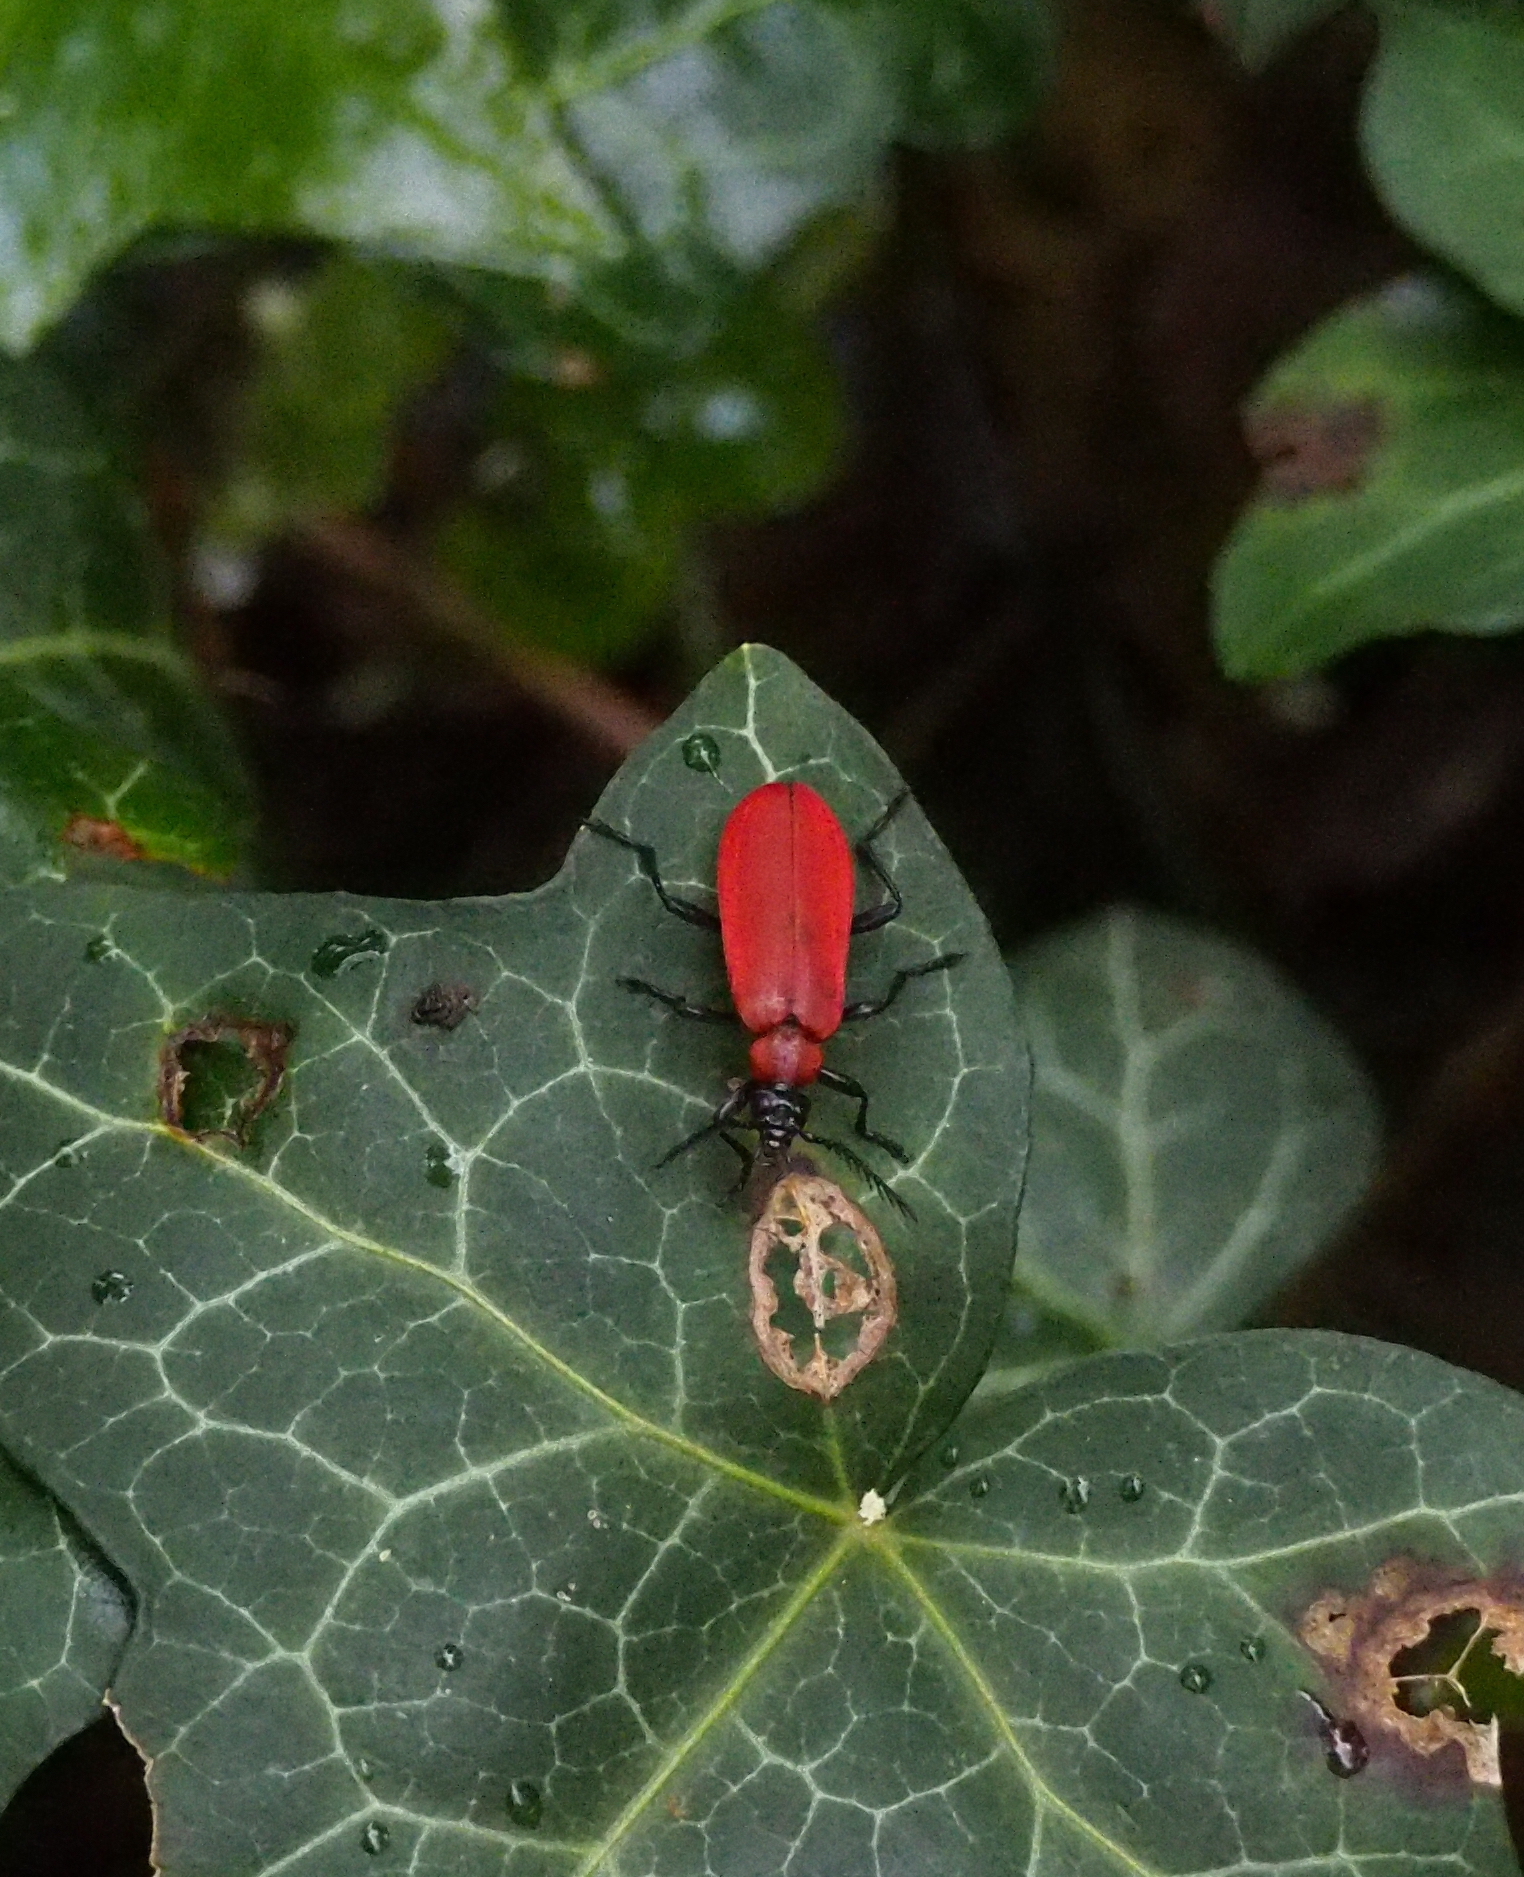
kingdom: Animalia
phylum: Arthropoda
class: Insecta
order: Coleoptera
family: Pyrochroidae
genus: Pyrochroa
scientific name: Pyrochroa coccinea
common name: Black-headed cardinal beetle
